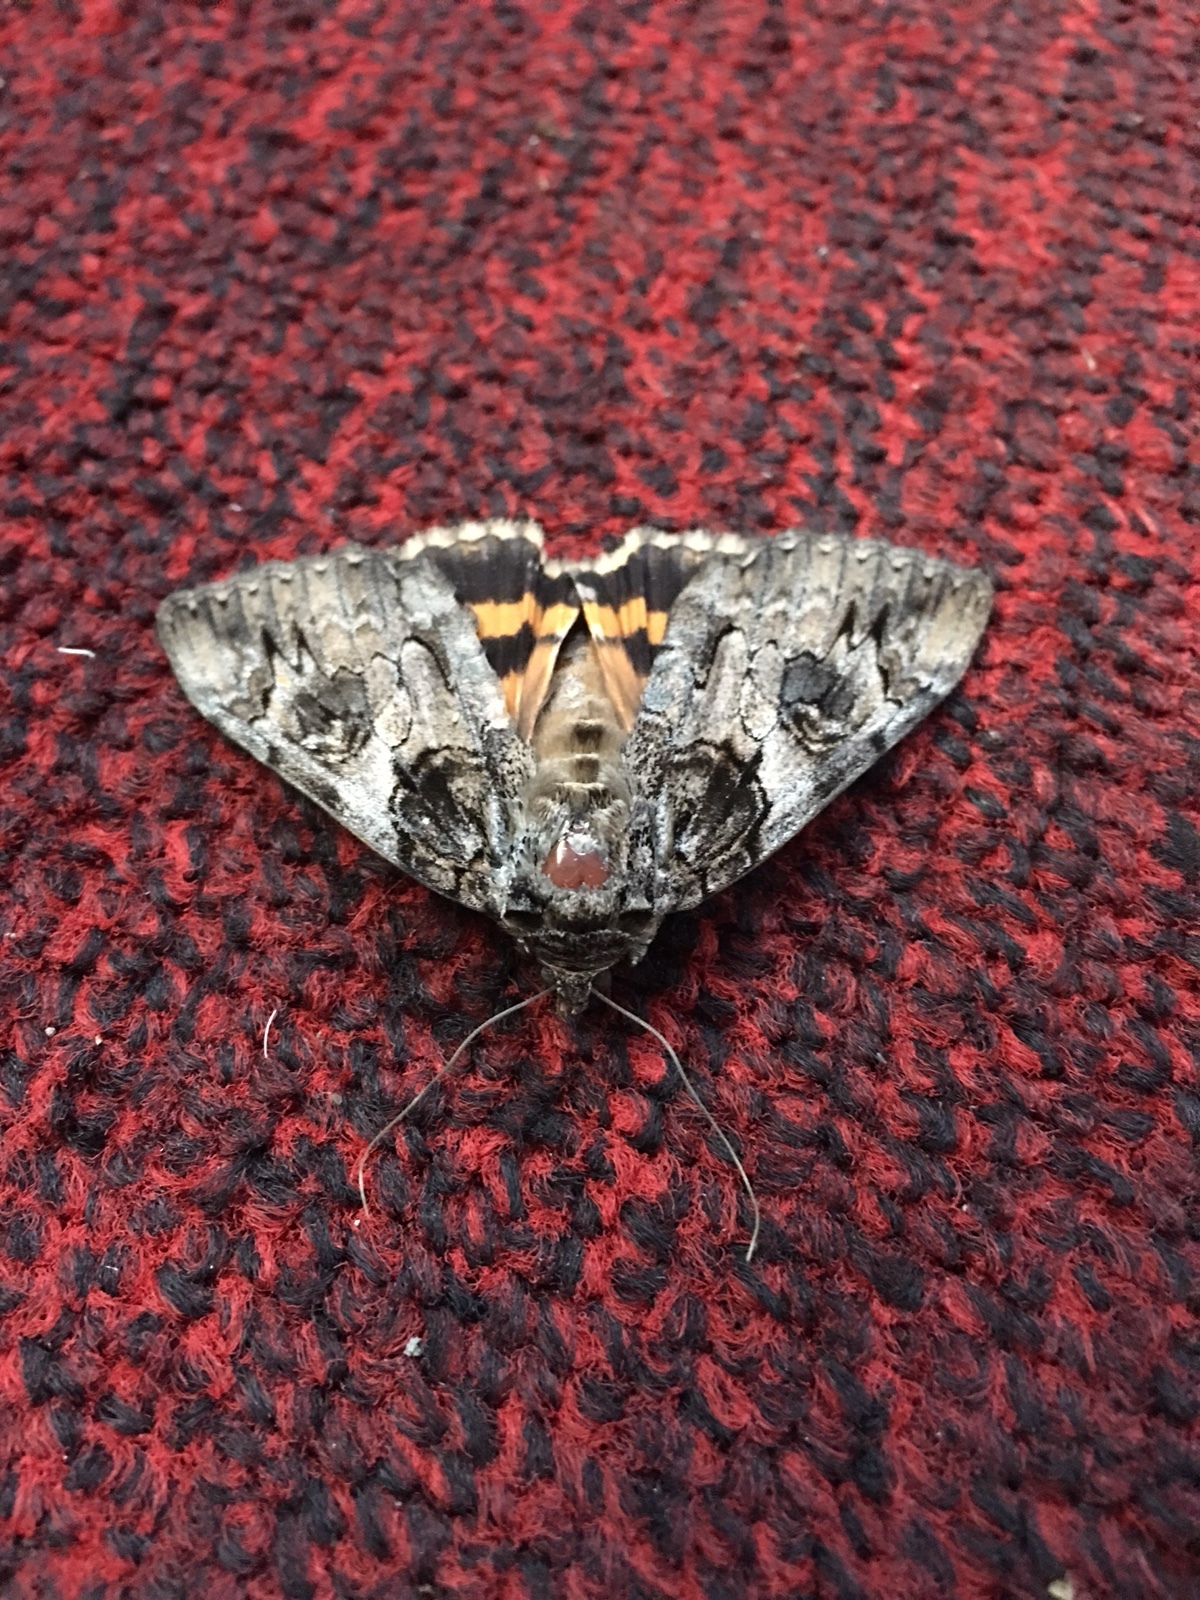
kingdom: Animalia
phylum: Arthropoda
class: Insecta
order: Lepidoptera
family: Erebidae
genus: Catocala
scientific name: Catocala piatrix
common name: The penitent underwing
